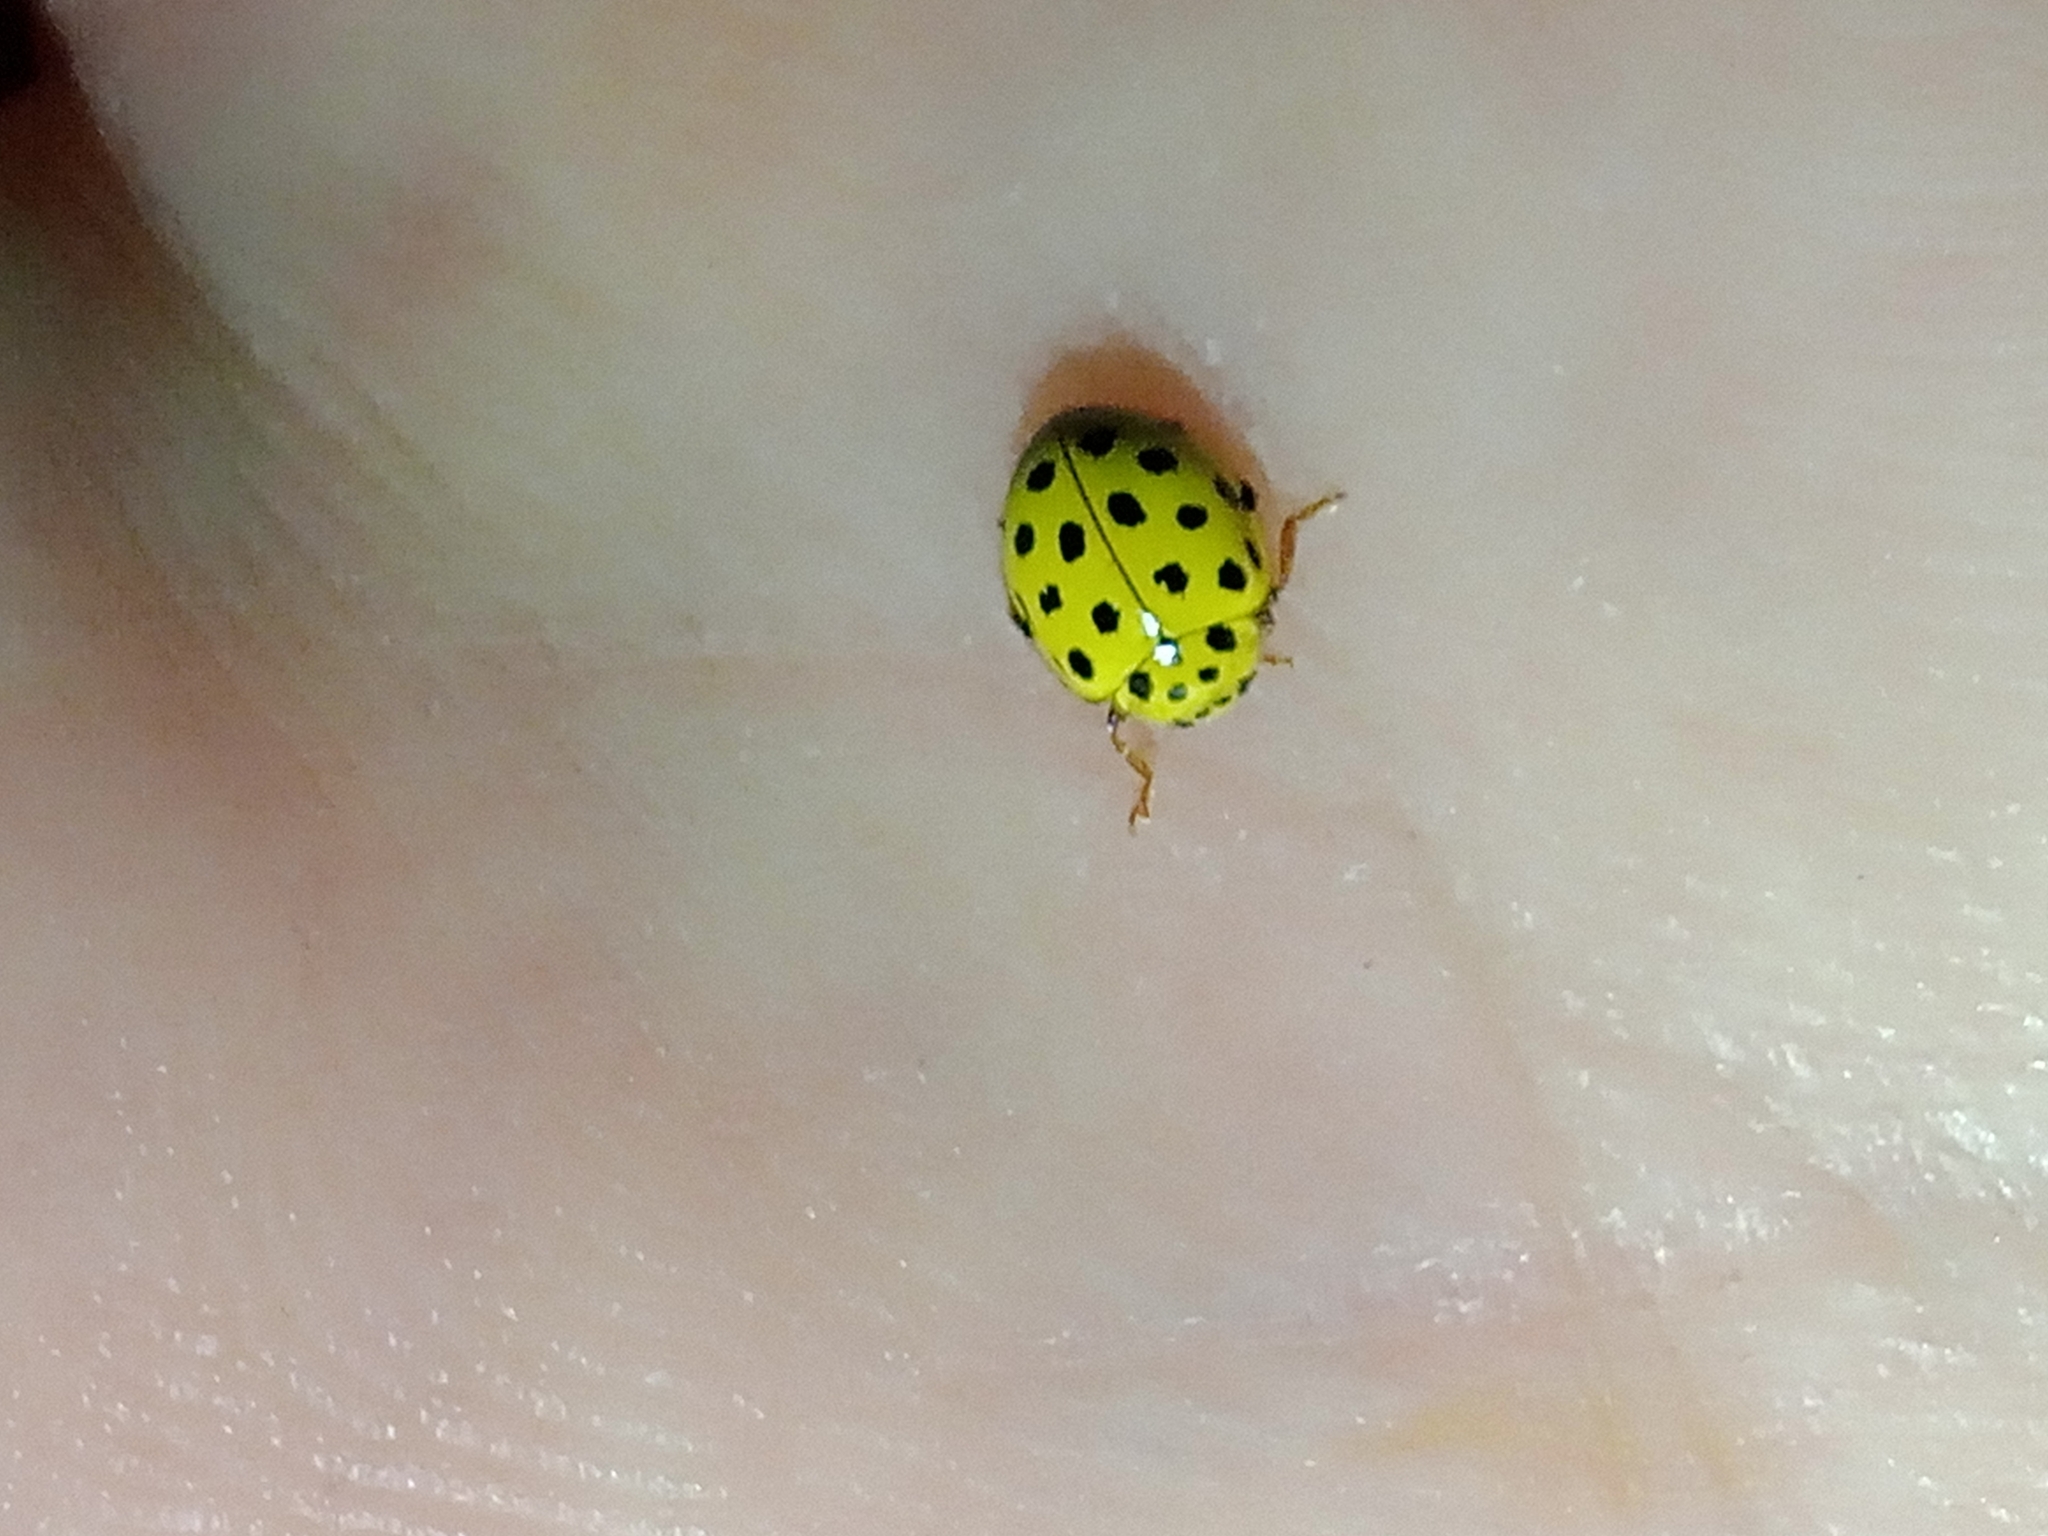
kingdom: Animalia
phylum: Arthropoda
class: Insecta
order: Coleoptera
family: Coccinellidae
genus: Psyllobora
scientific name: Psyllobora vigintiduopunctata
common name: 22-spot ladybird
